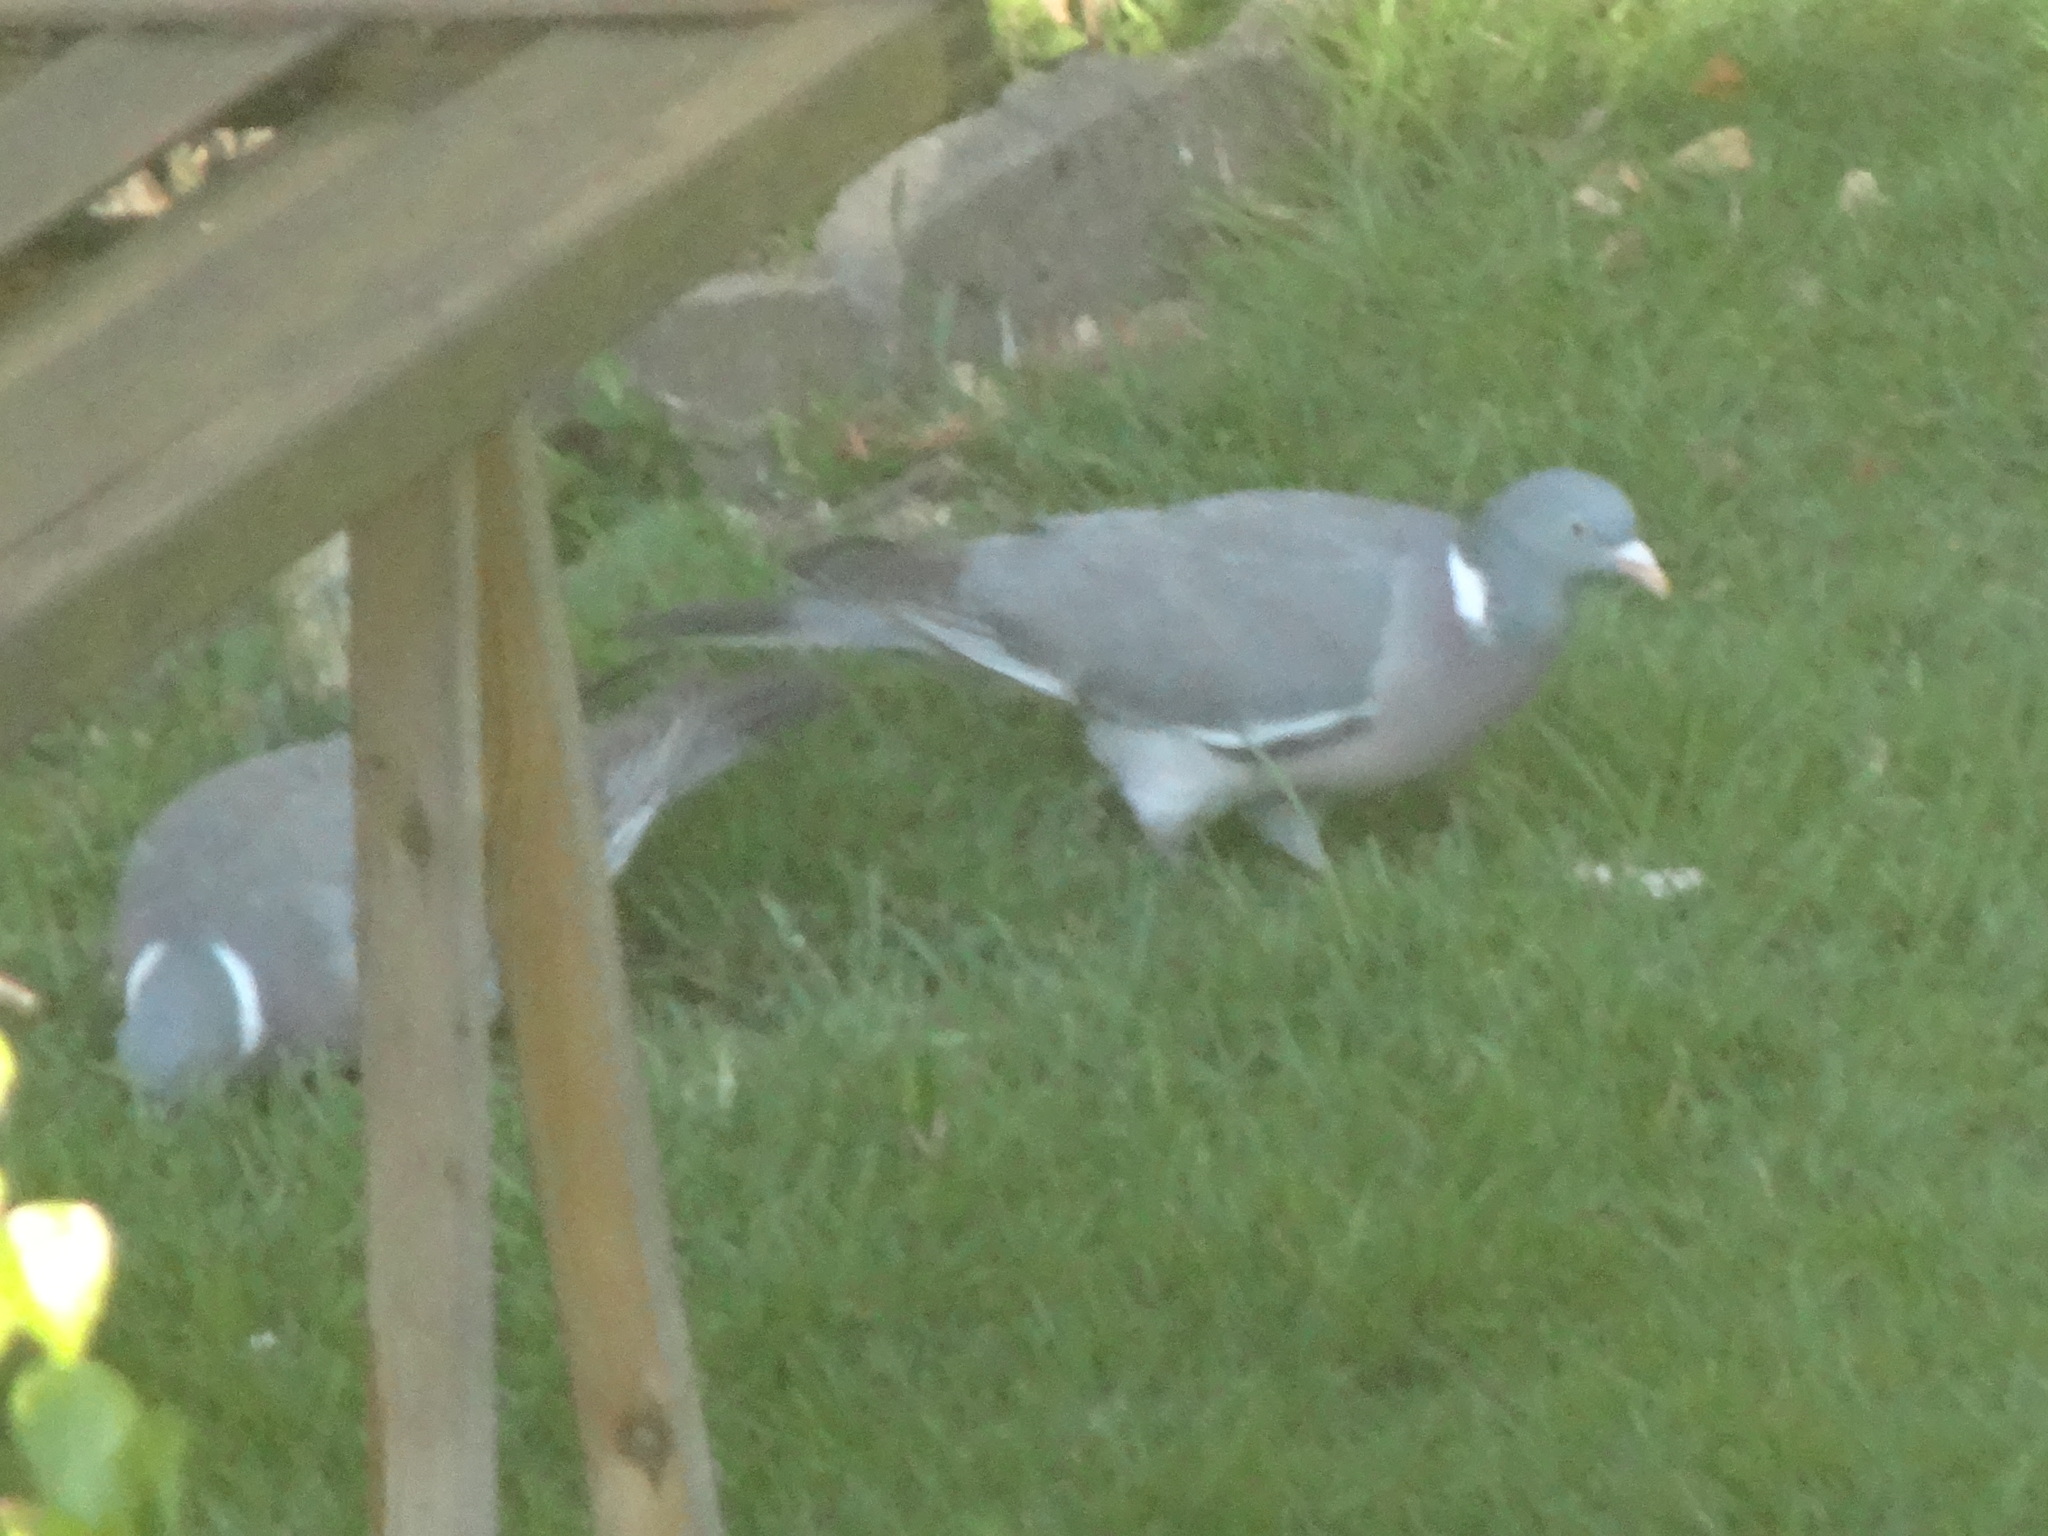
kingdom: Animalia
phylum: Chordata
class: Aves
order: Columbiformes
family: Columbidae
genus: Columba
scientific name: Columba palumbus
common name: Common wood pigeon
